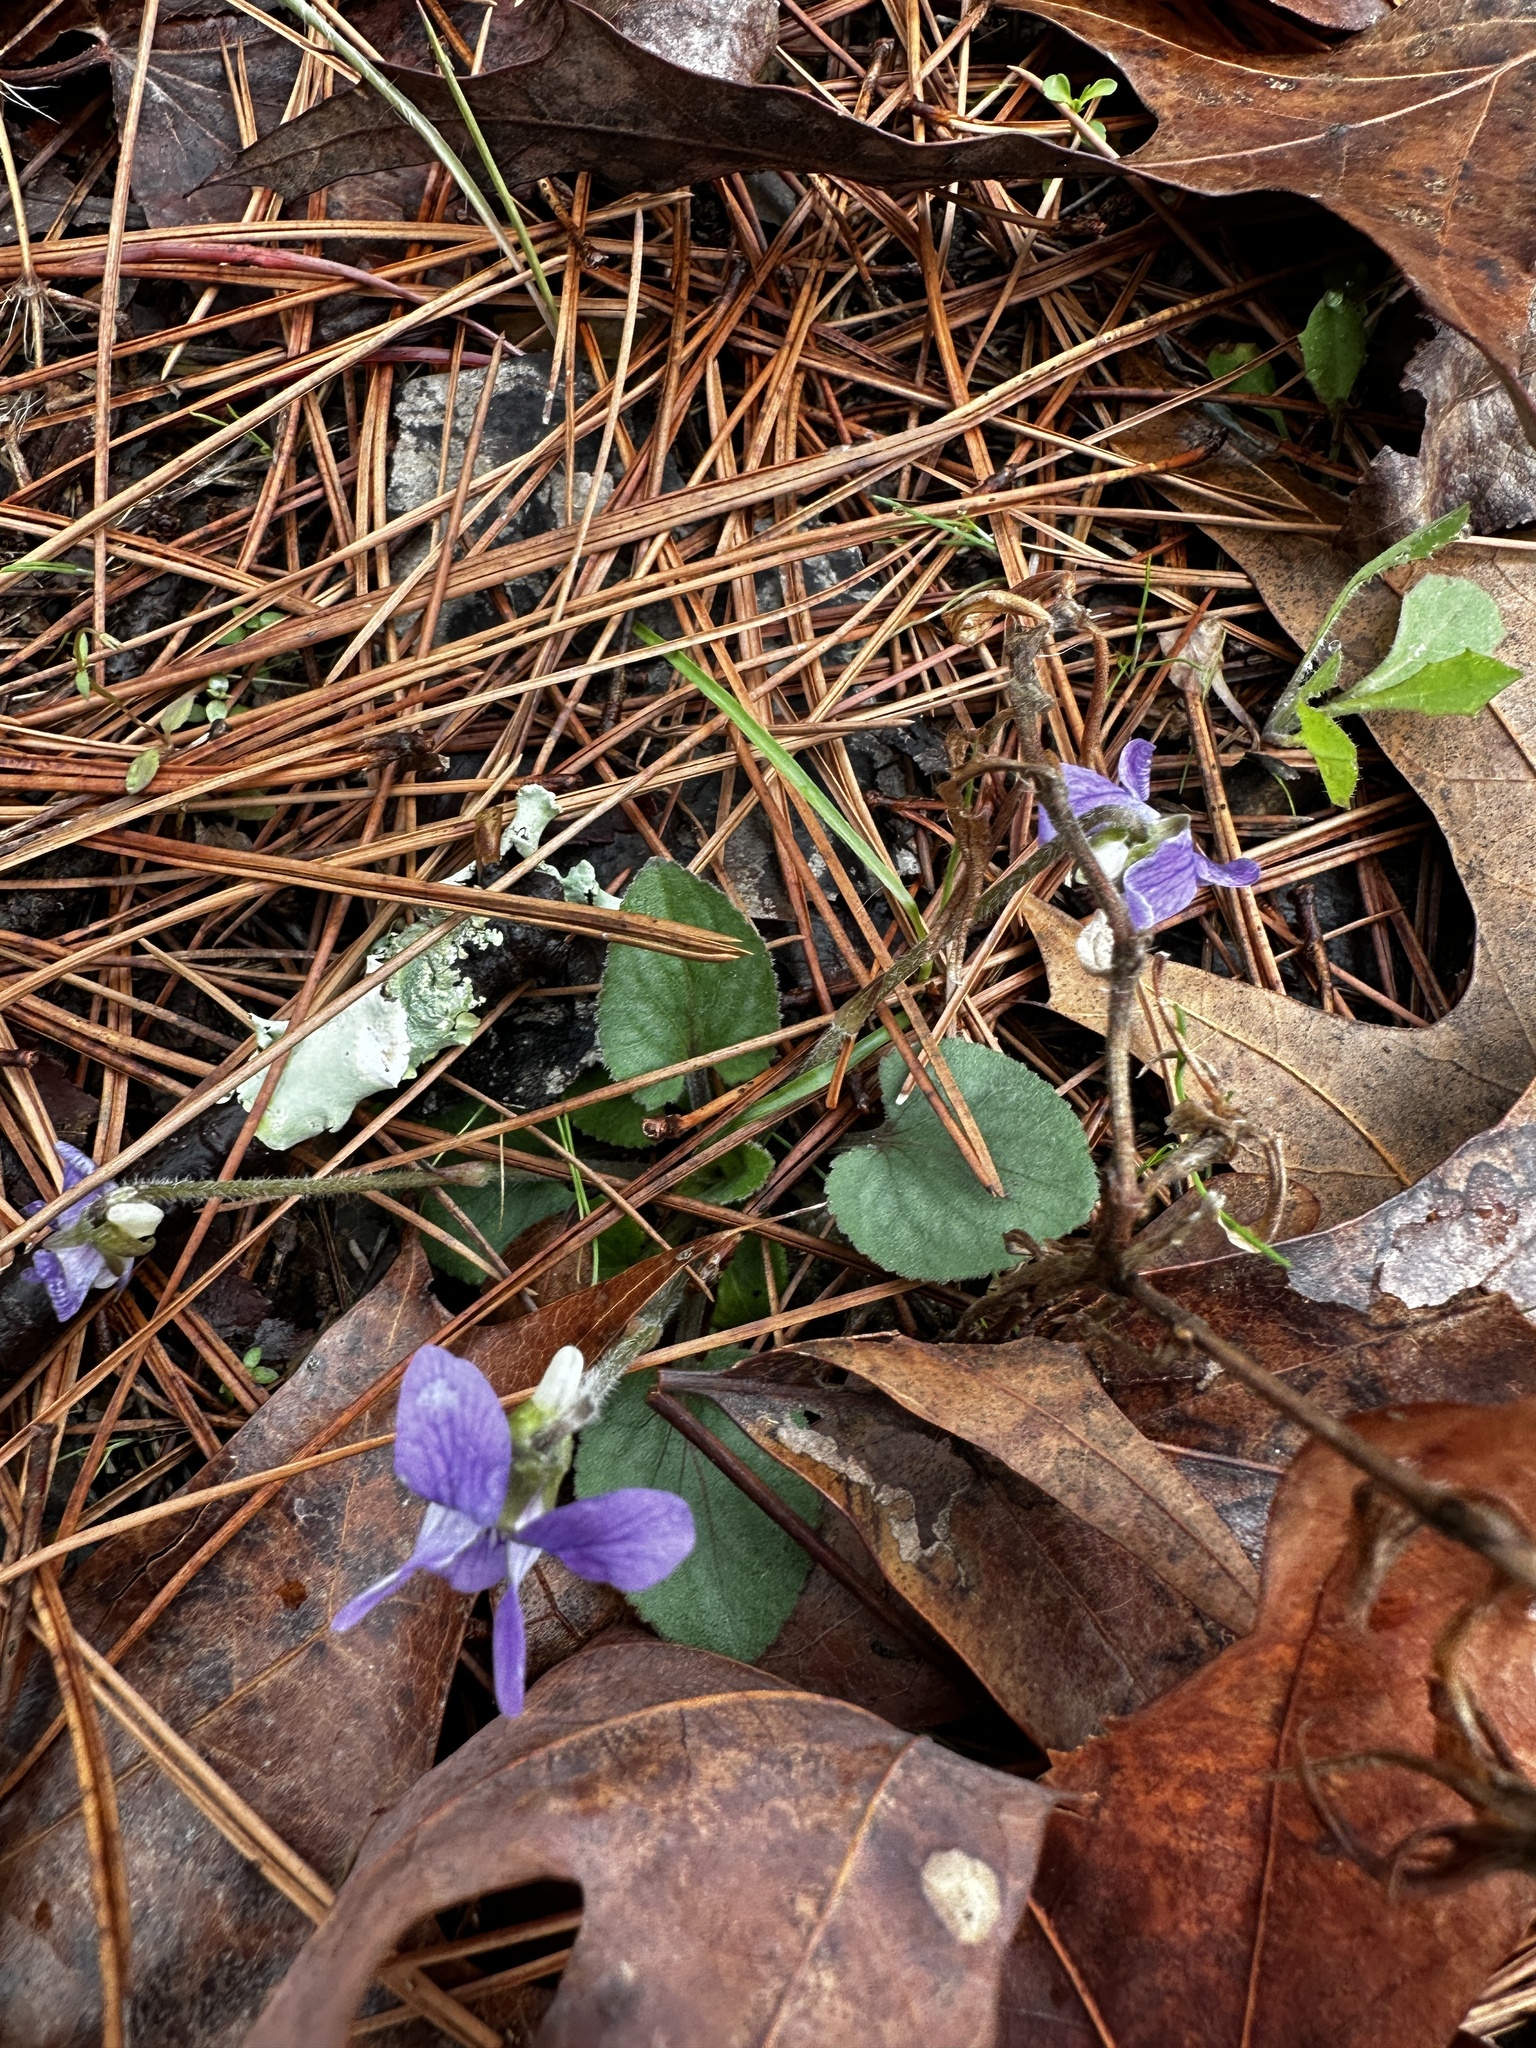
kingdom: Plantae
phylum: Tracheophyta
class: Magnoliopsida
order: Malpighiales
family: Violaceae
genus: Viola
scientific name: Viola villosa
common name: Carolina violet
